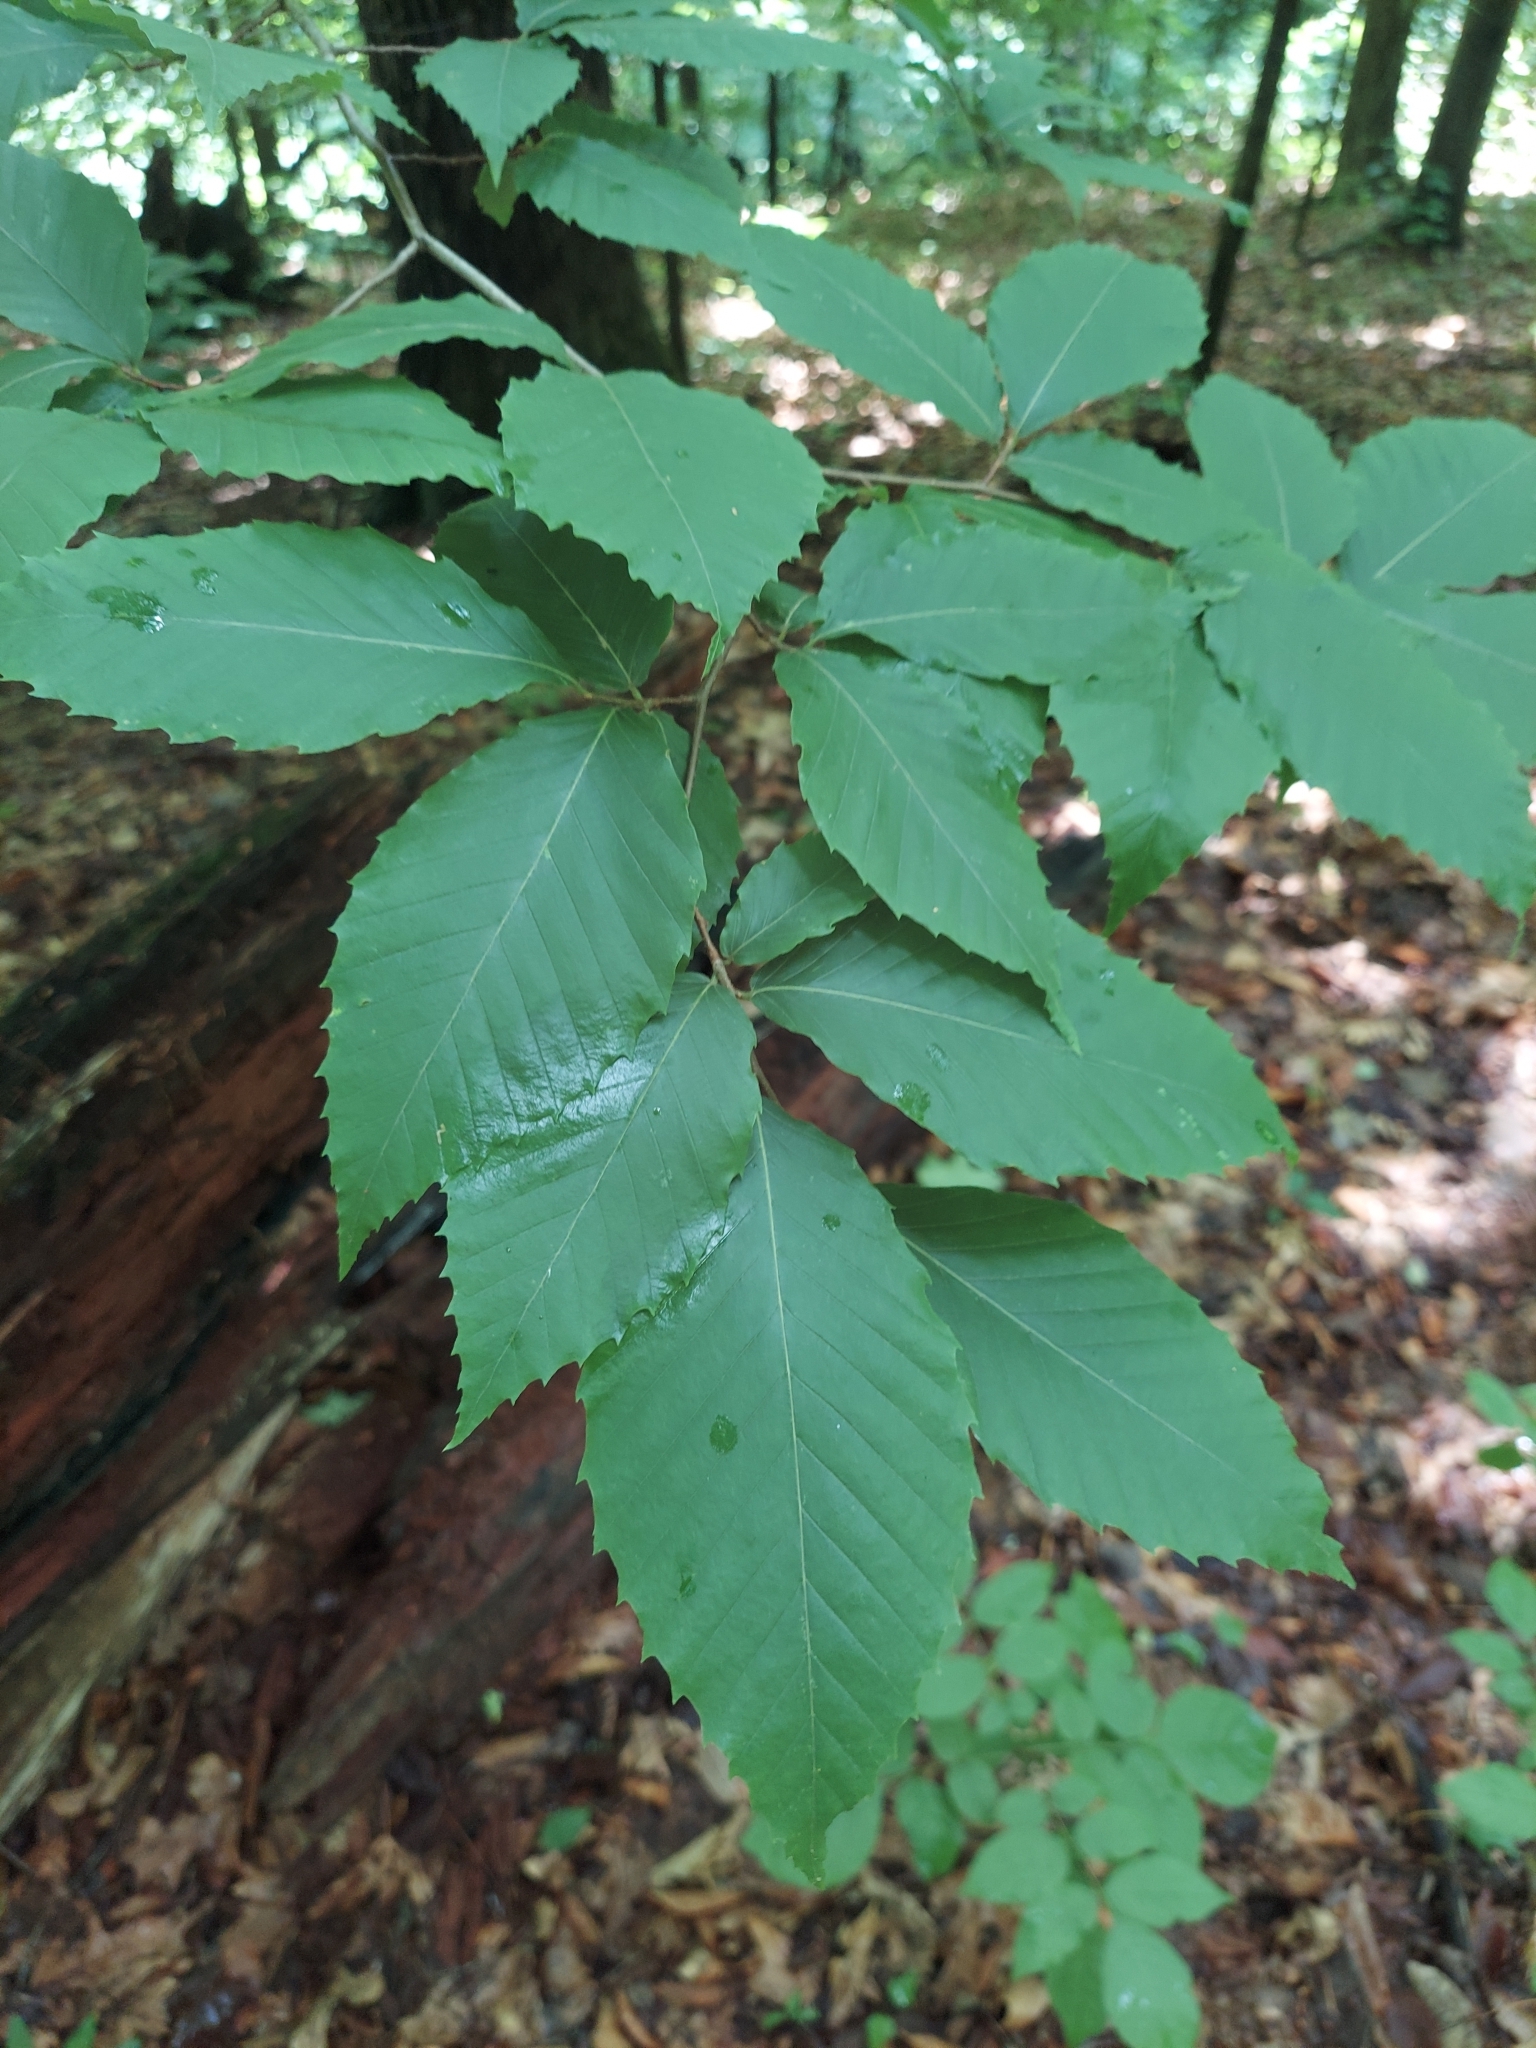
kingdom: Plantae
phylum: Tracheophyta
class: Magnoliopsida
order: Fagales
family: Fagaceae
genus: Fagus
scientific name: Fagus grandifolia
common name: American beech
